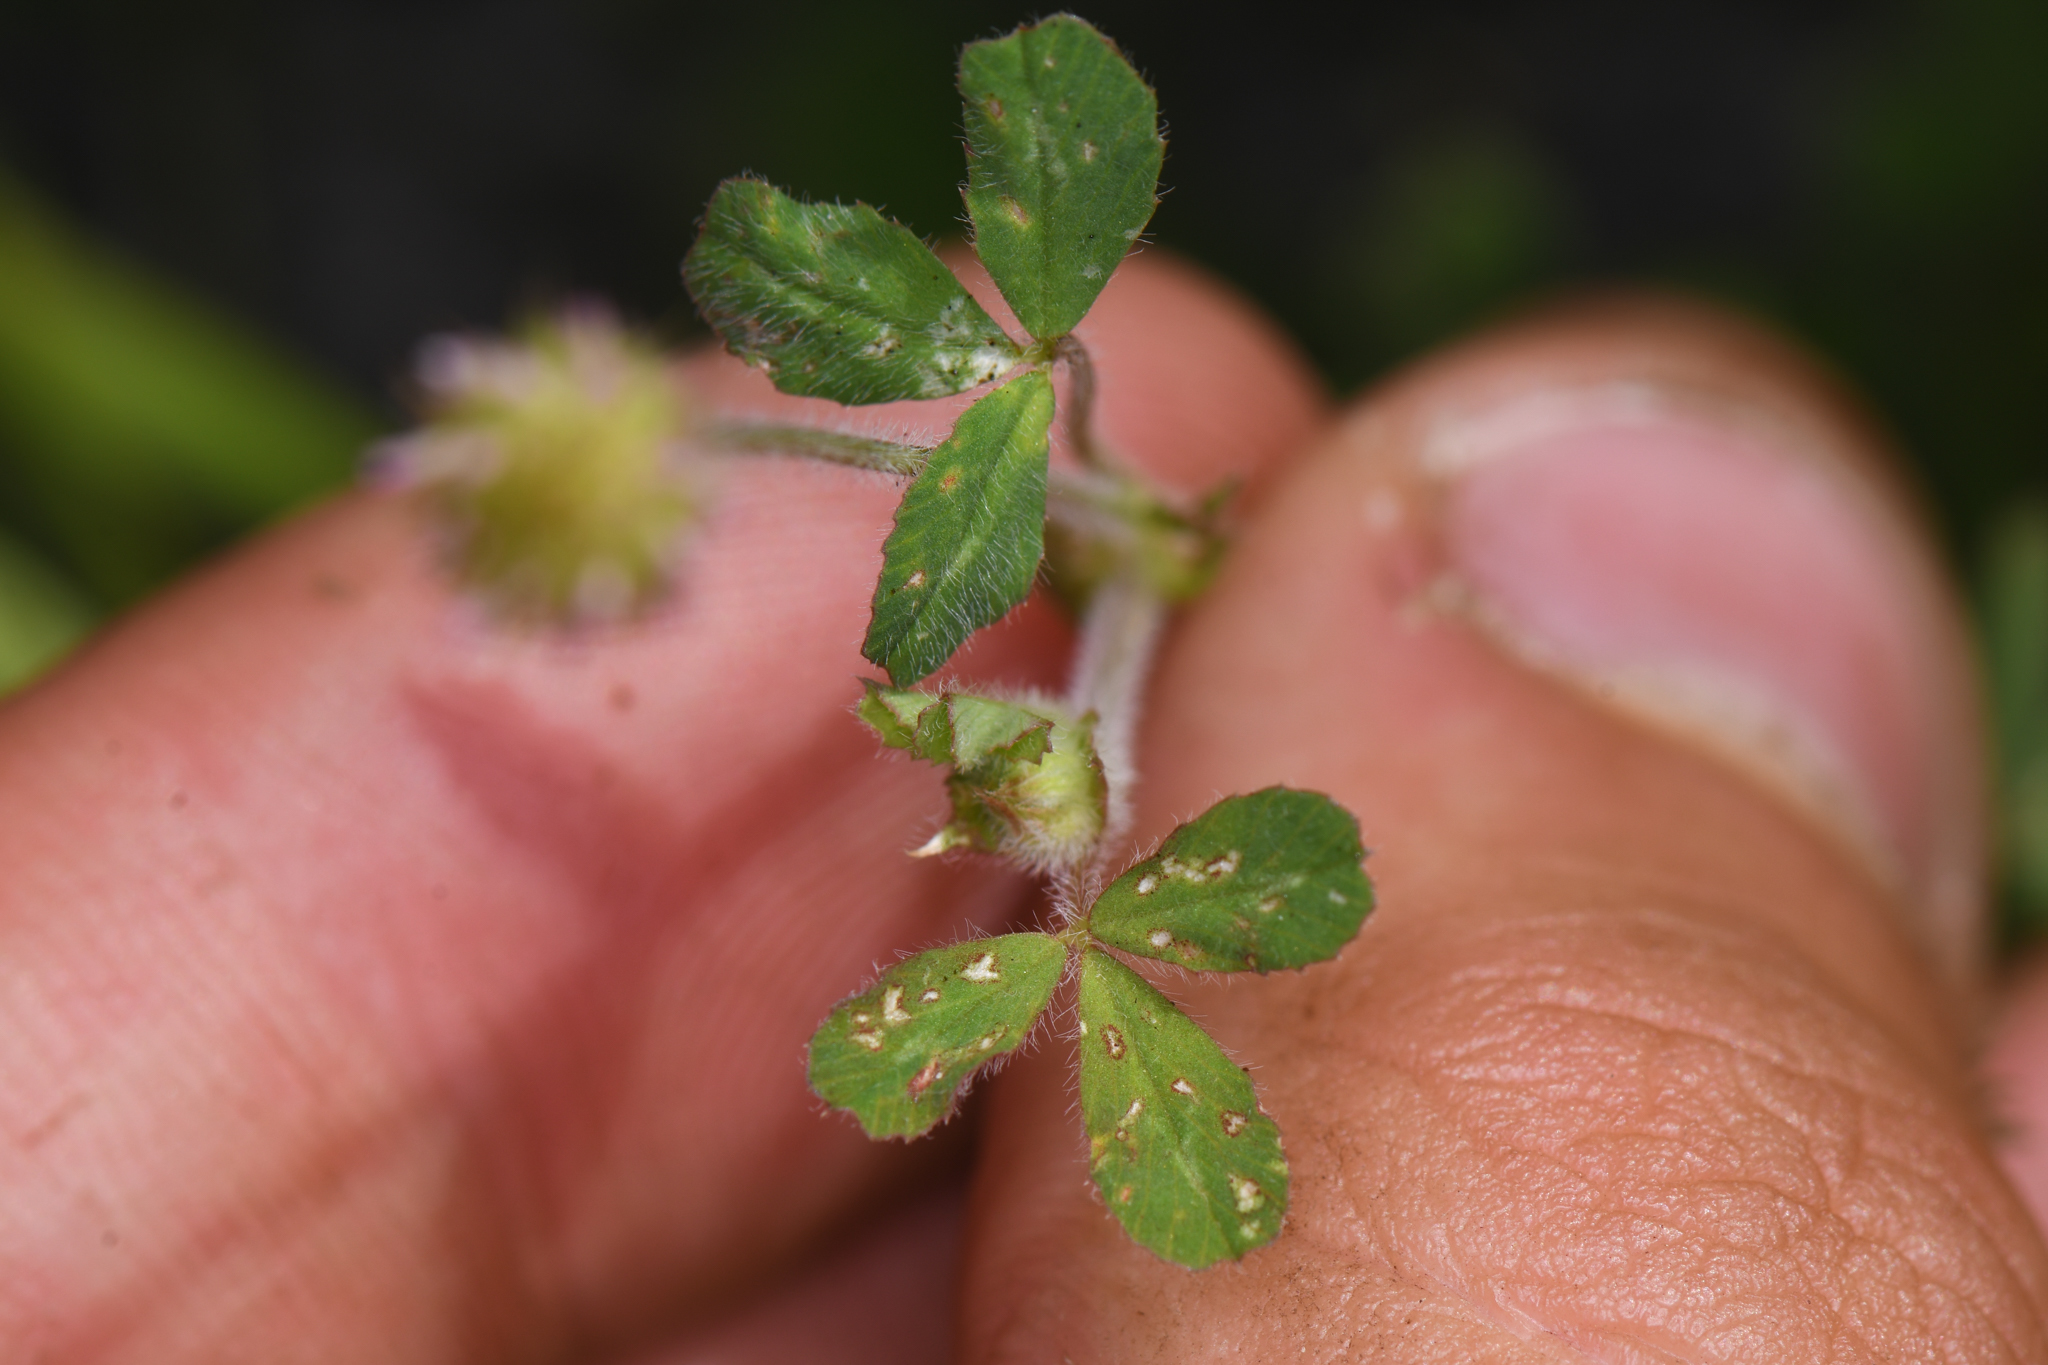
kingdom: Plantae
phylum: Tracheophyta
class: Magnoliopsida
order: Fabales
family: Fabaceae
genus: Trifolium
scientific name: Trifolium microcephalum
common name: Maiden clover
